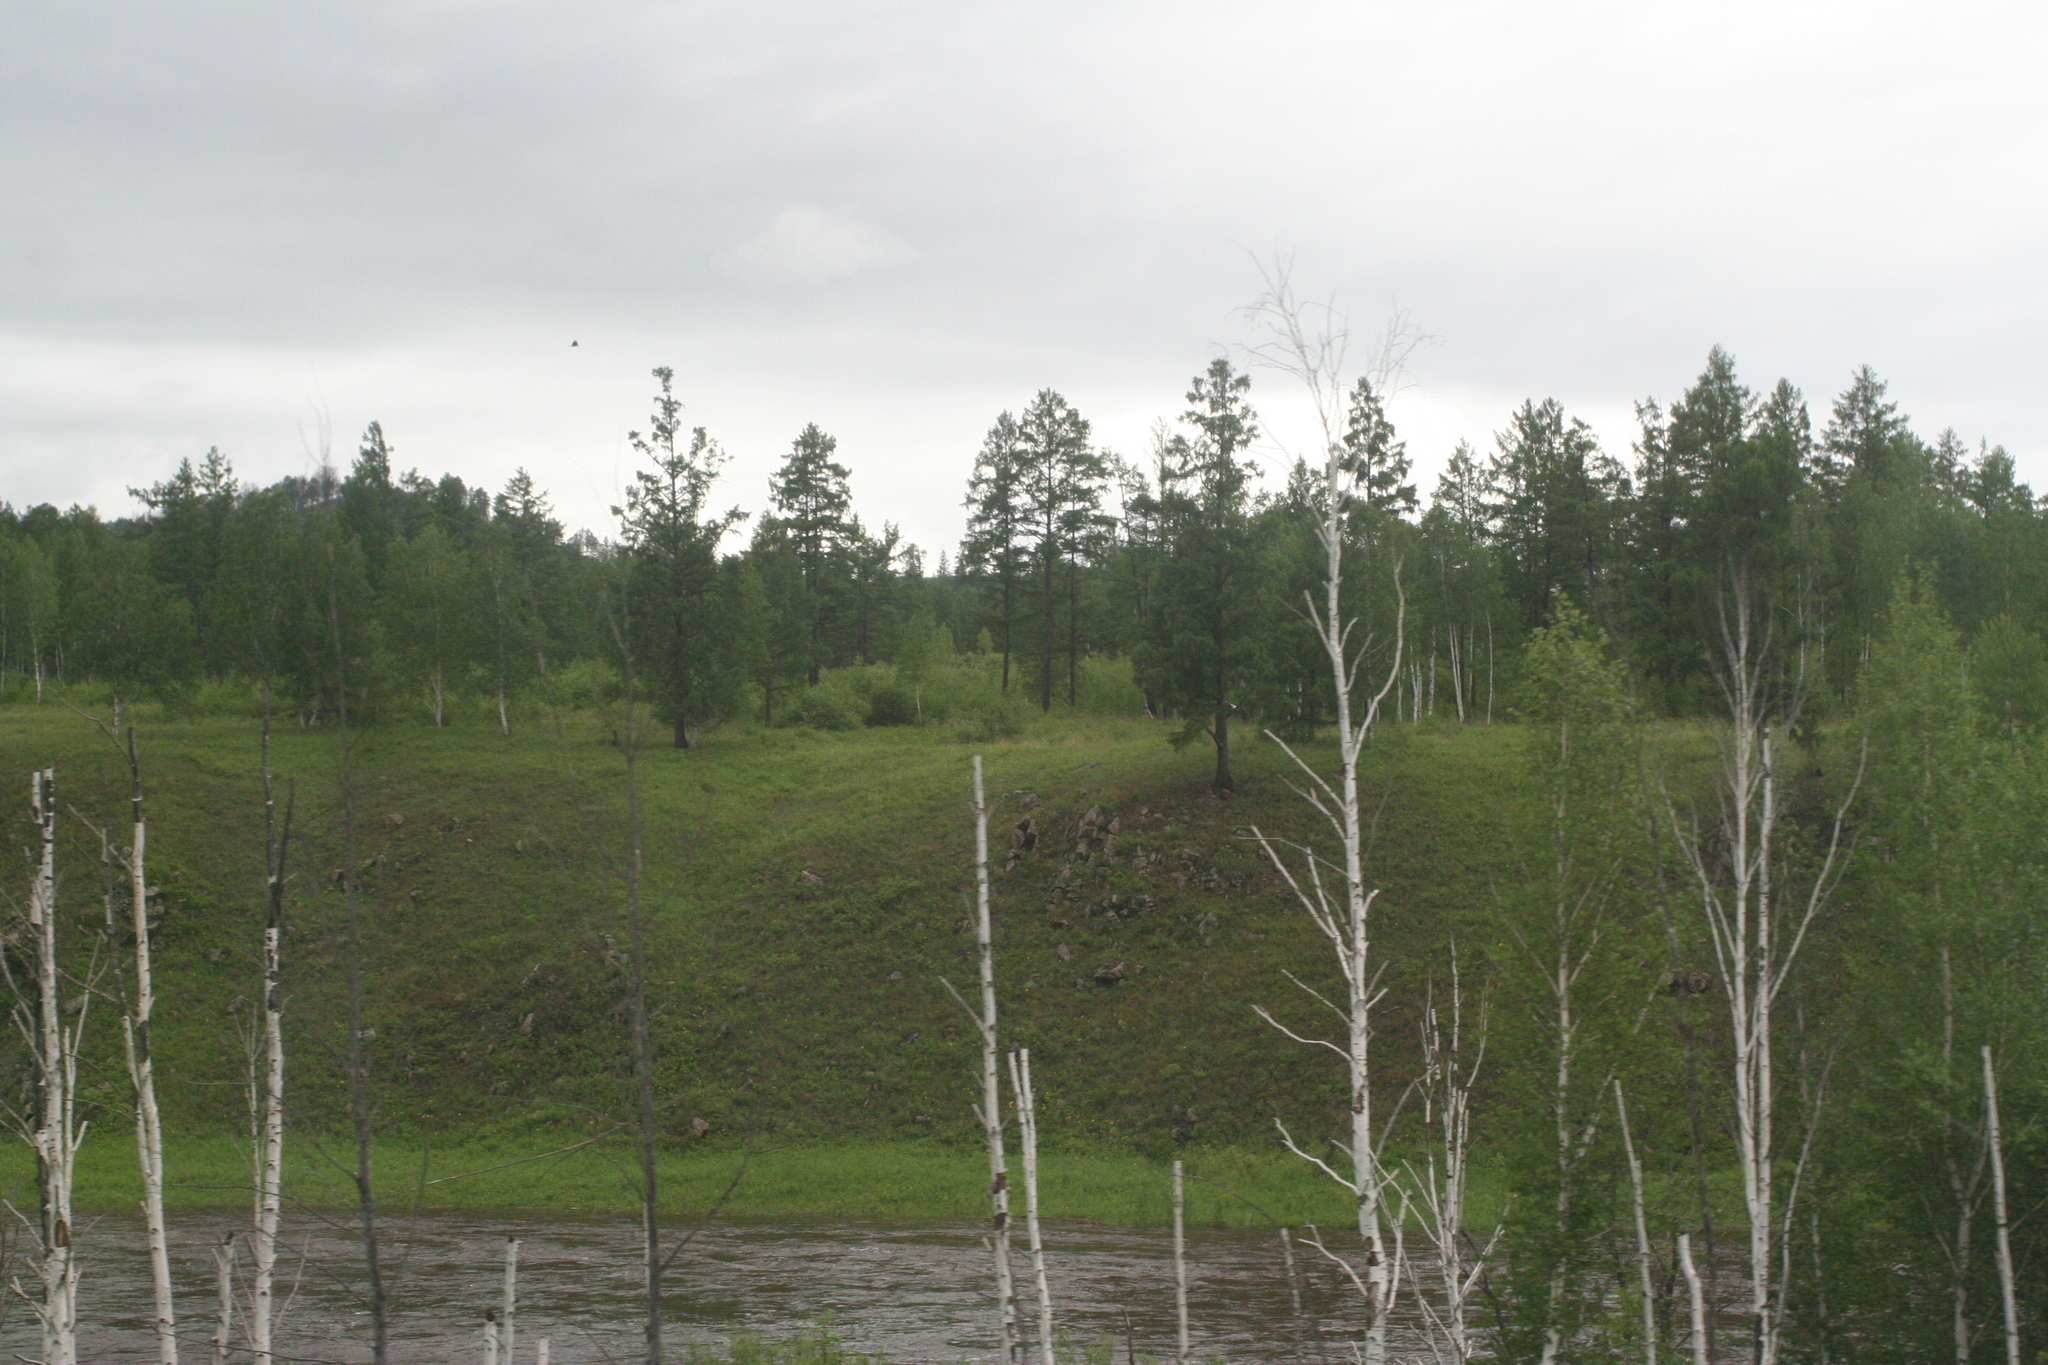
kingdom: Plantae
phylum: Tracheophyta
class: Magnoliopsida
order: Fagales
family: Betulaceae
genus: Betula
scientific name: Betula pendula
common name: Silver birch
